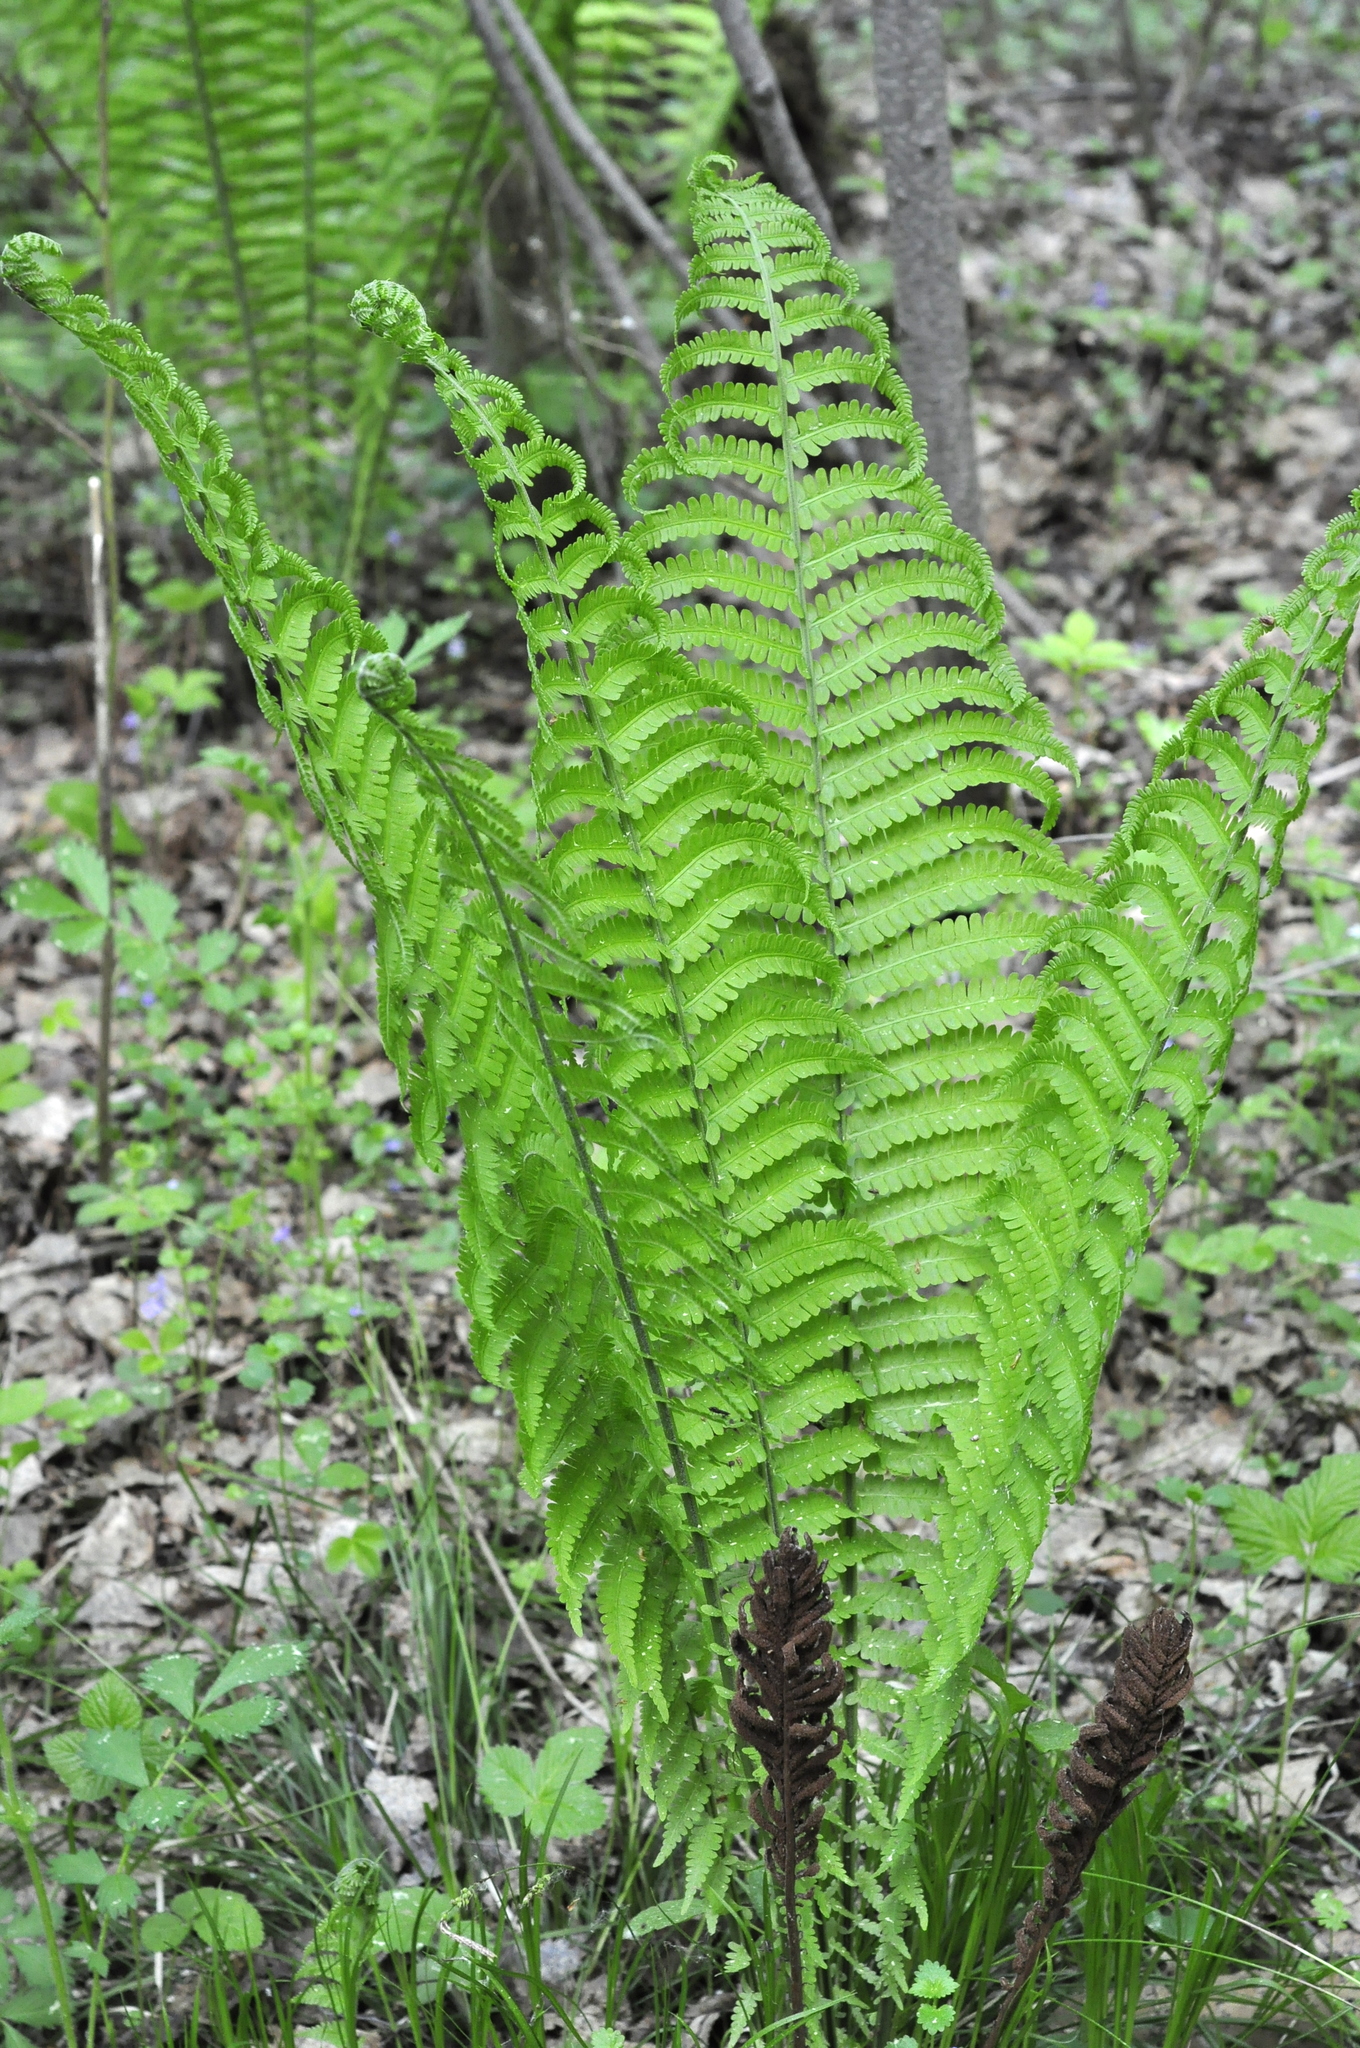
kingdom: Plantae
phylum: Tracheophyta
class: Polypodiopsida
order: Polypodiales
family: Onocleaceae
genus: Matteuccia
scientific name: Matteuccia struthiopteris
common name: Ostrich fern
